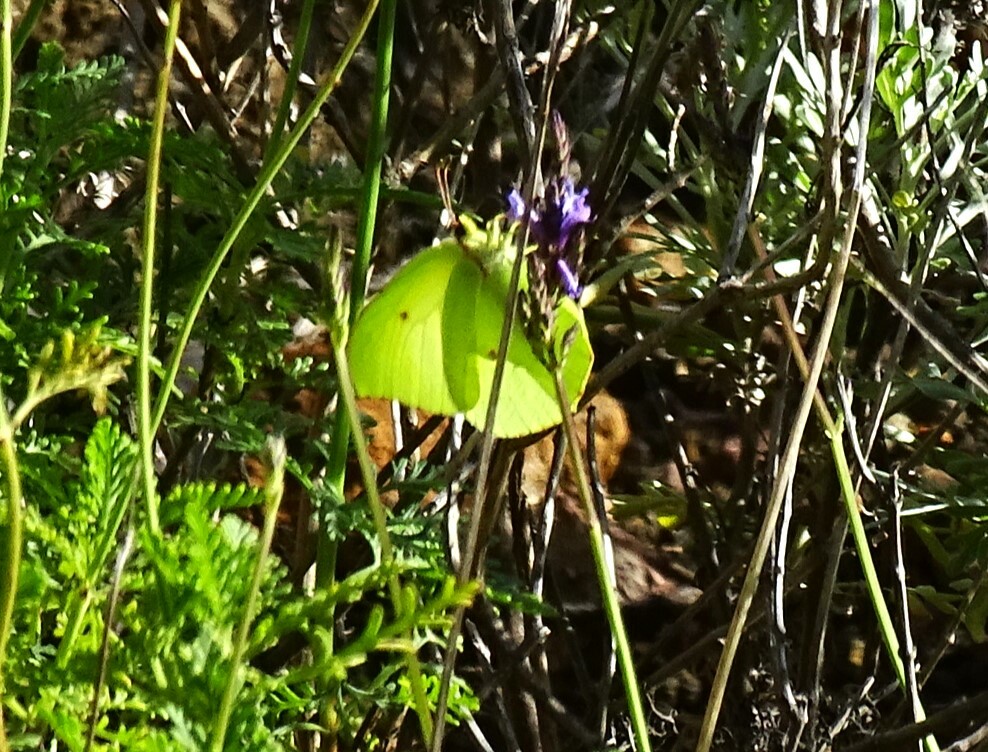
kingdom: Animalia
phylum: Arthropoda
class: Insecta
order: Lepidoptera
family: Pieridae
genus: Gonepteryx
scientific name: Gonepteryx cleobule
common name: Canary brimstone
